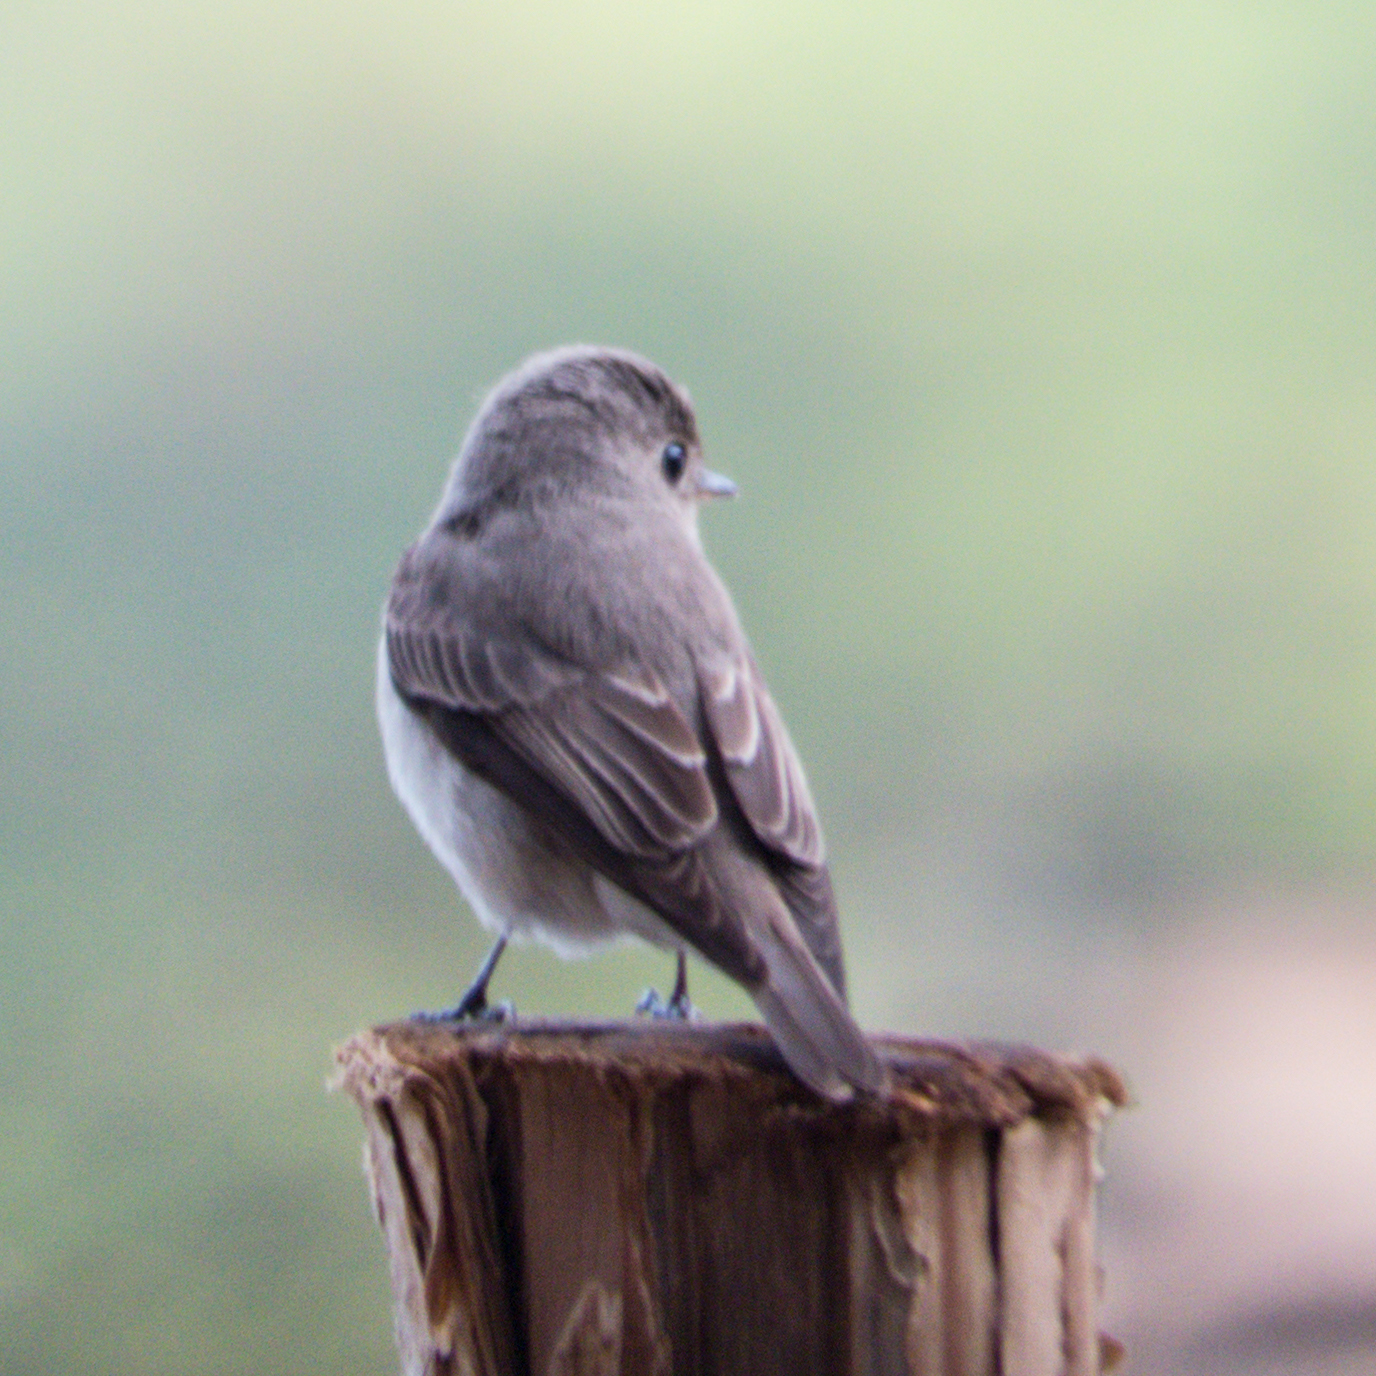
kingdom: Animalia
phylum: Chordata
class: Aves
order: Passeriformes
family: Muscicapidae
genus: Muscicapa
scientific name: Muscicapa latirostris
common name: Asian brown flycatcher
